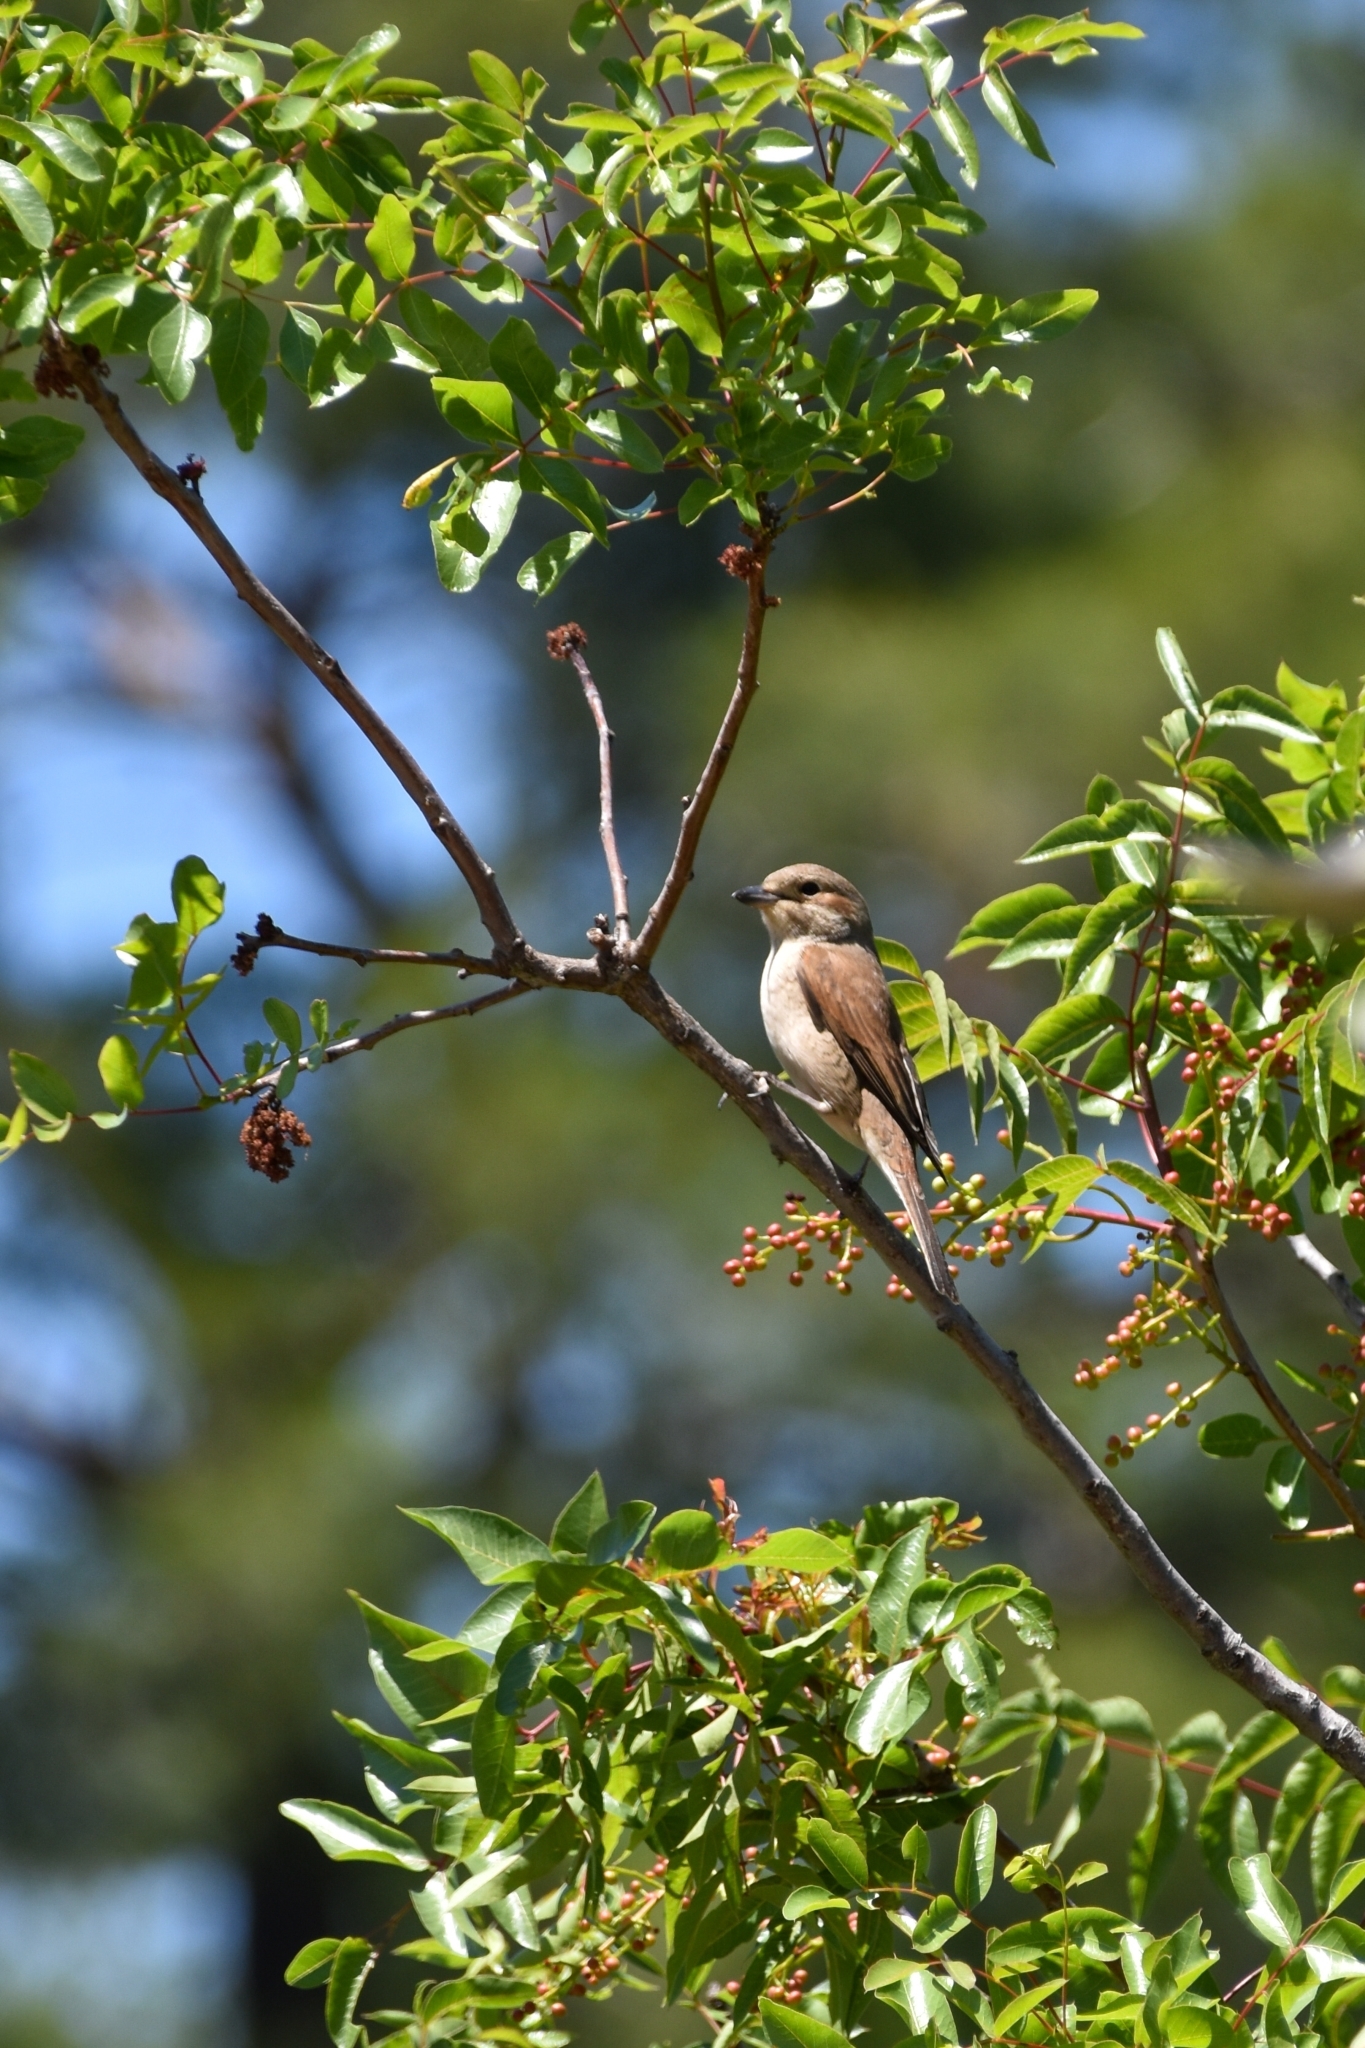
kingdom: Animalia
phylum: Chordata
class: Aves
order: Passeriformes
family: Laniidae
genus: Lanius
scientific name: Lanius collurio
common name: Red-backed shrike
